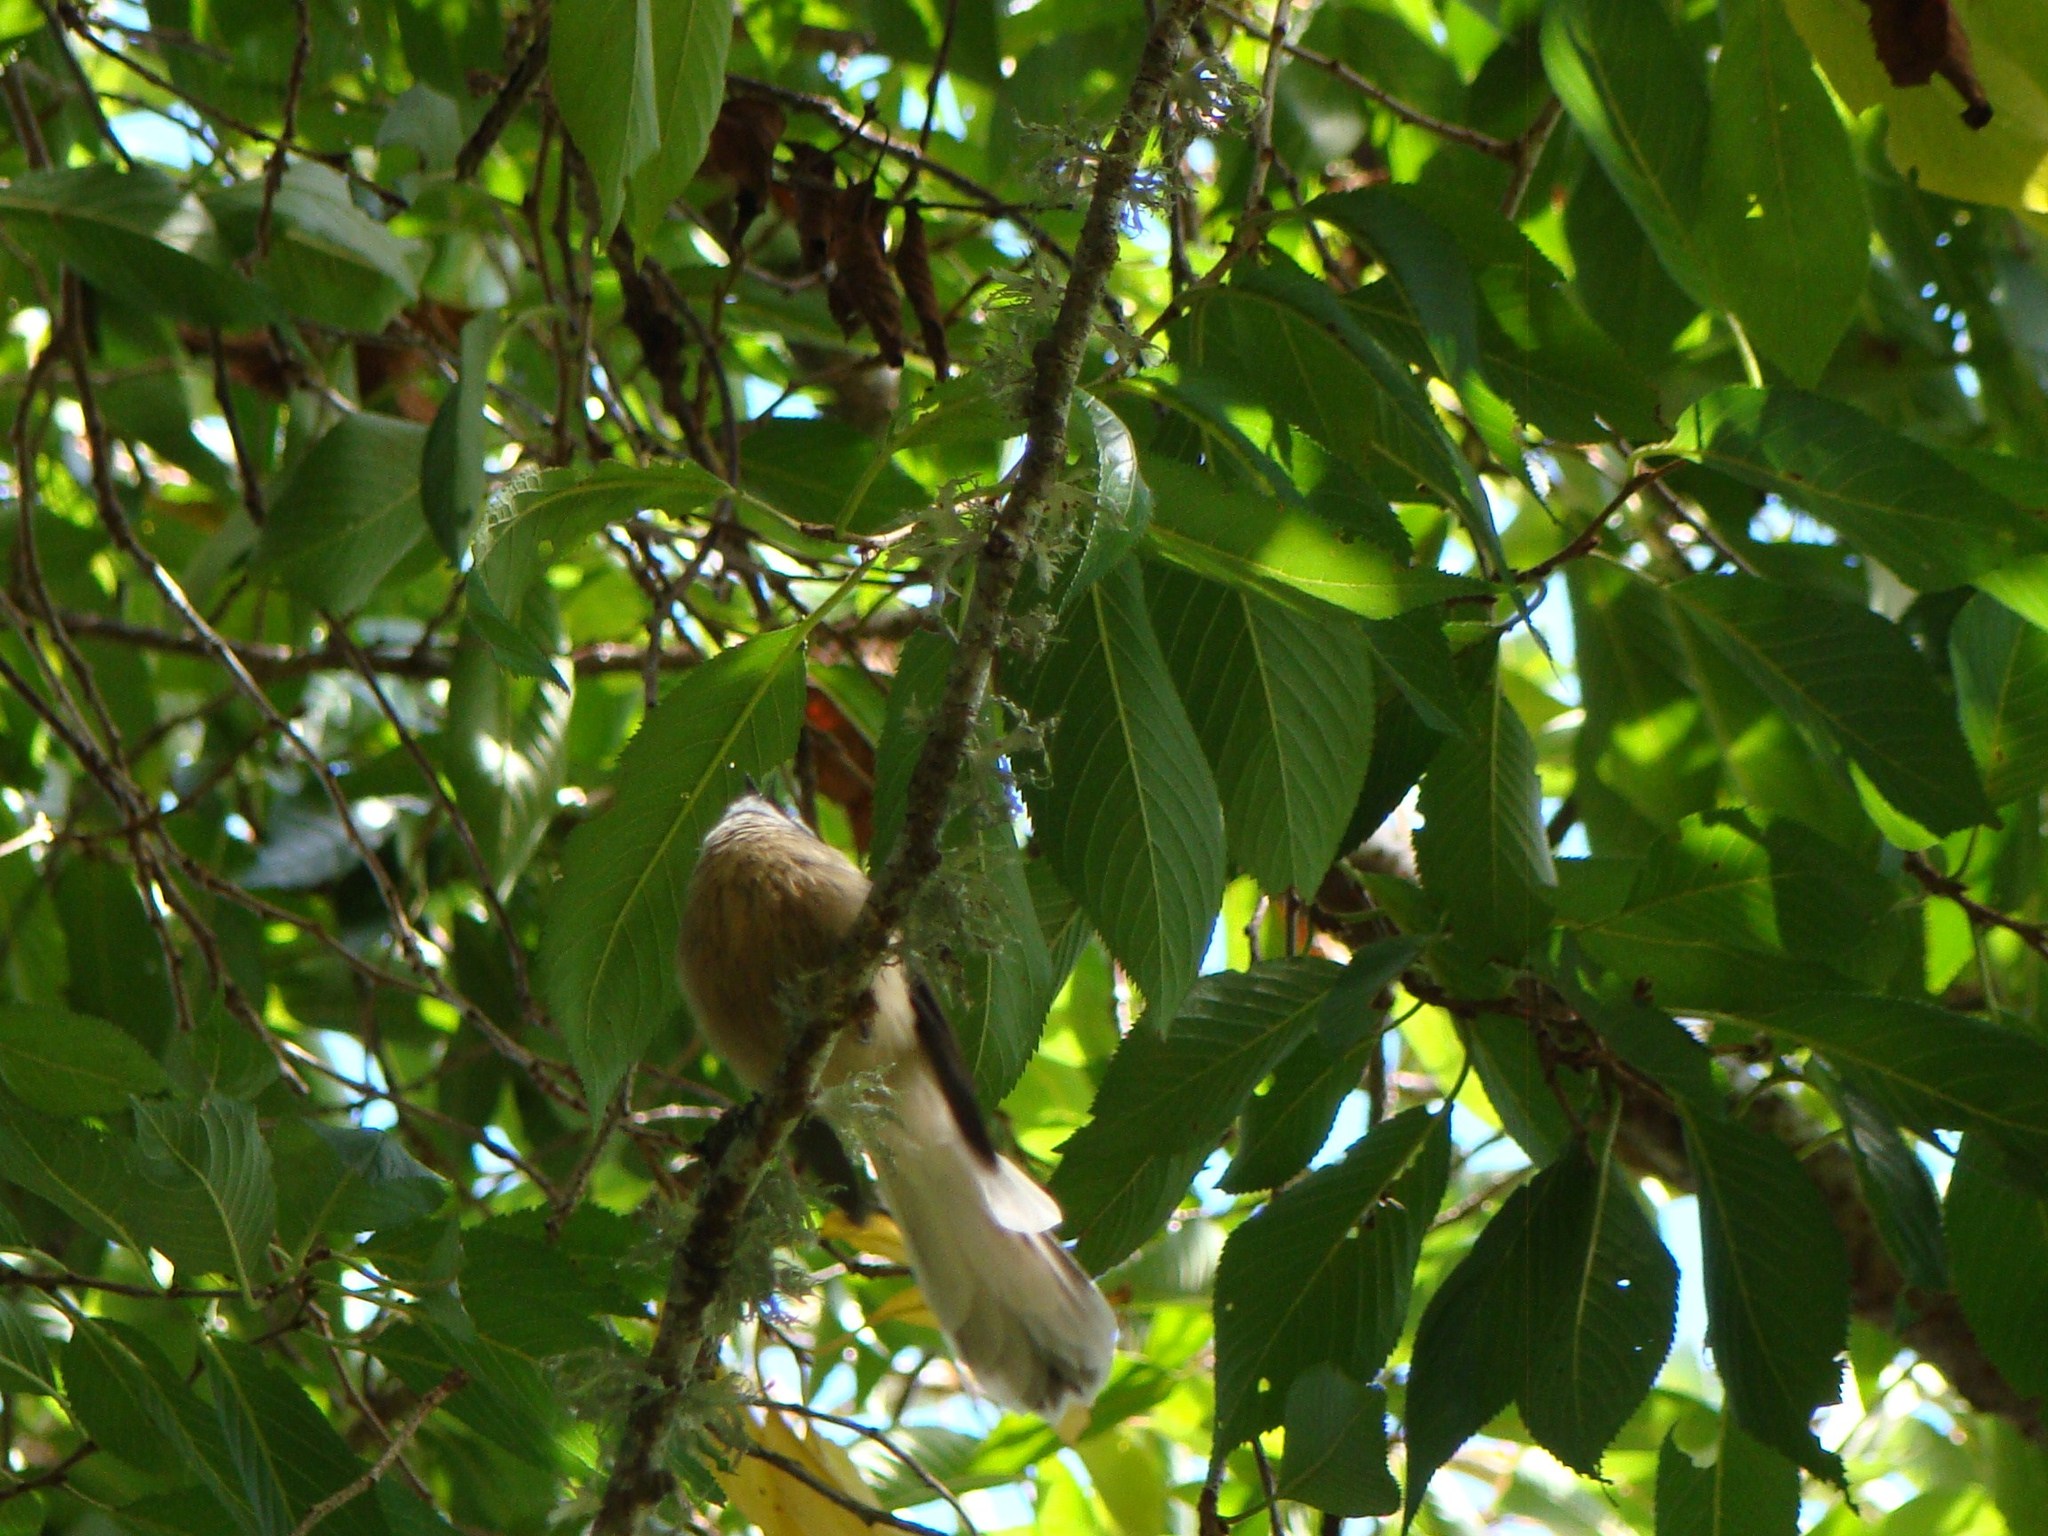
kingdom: Animalia
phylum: Chordata
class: Aves
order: Passeriformes
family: Rhipiduridae
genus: Rhipidura
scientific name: Rhipidura fuliginosa
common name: New zealand fantail
